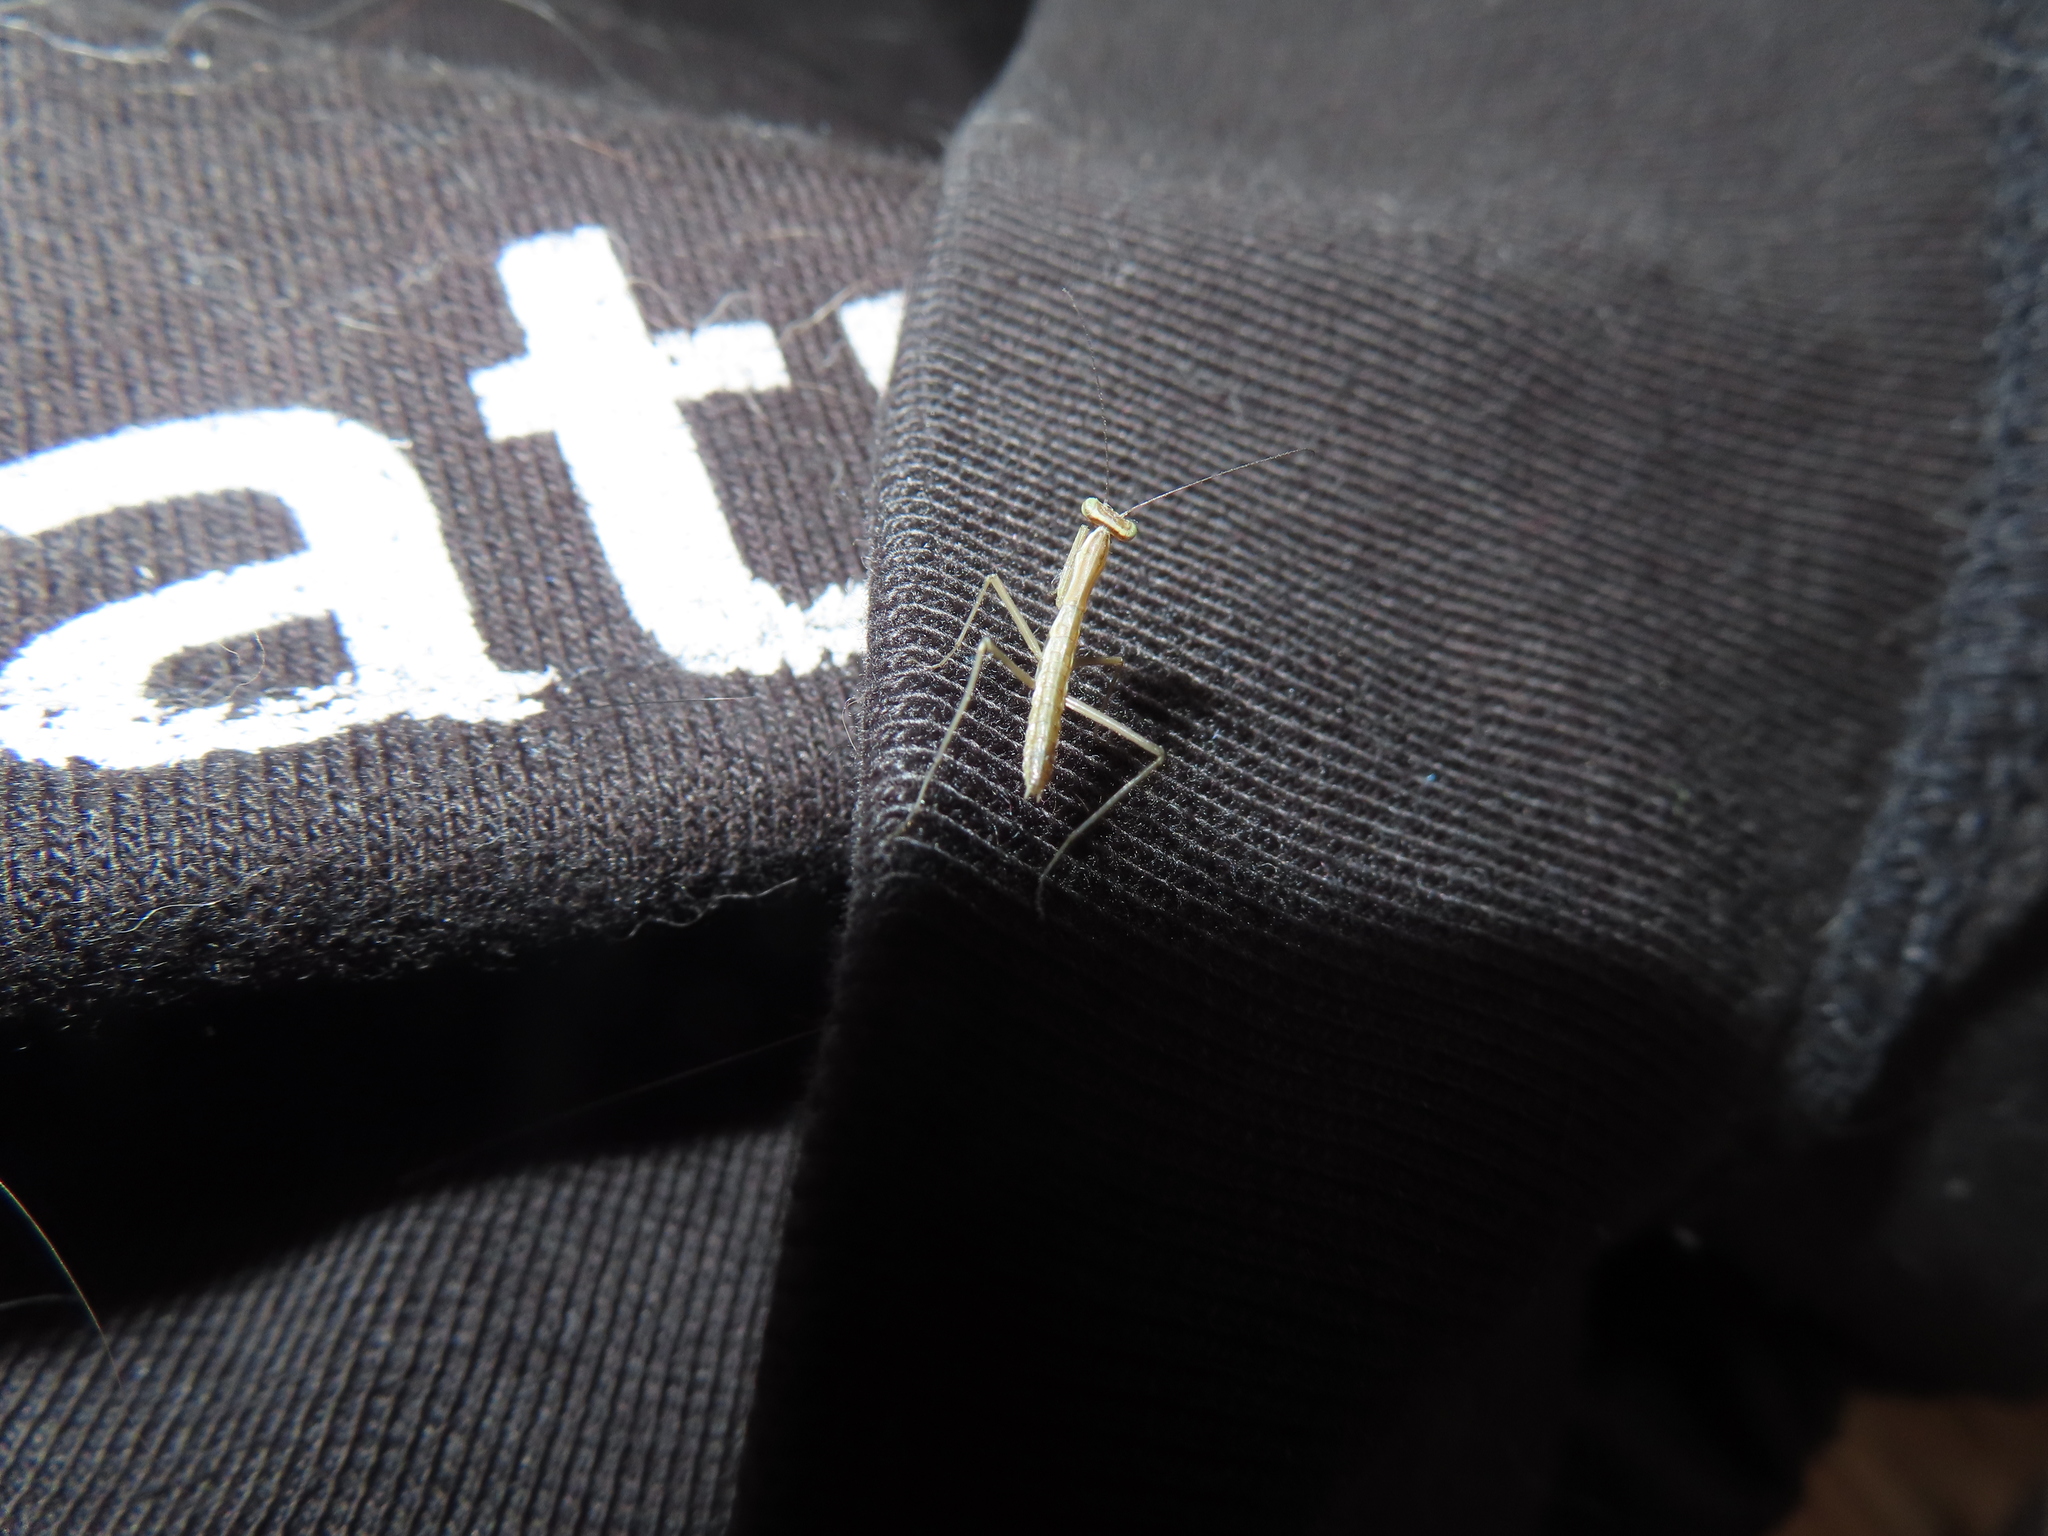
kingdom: Animalia
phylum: Arthropoda
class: Insecta
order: Mantodea
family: Mantidae
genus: Tenodera
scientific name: Tenodera sinensis
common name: Chinese mantis
